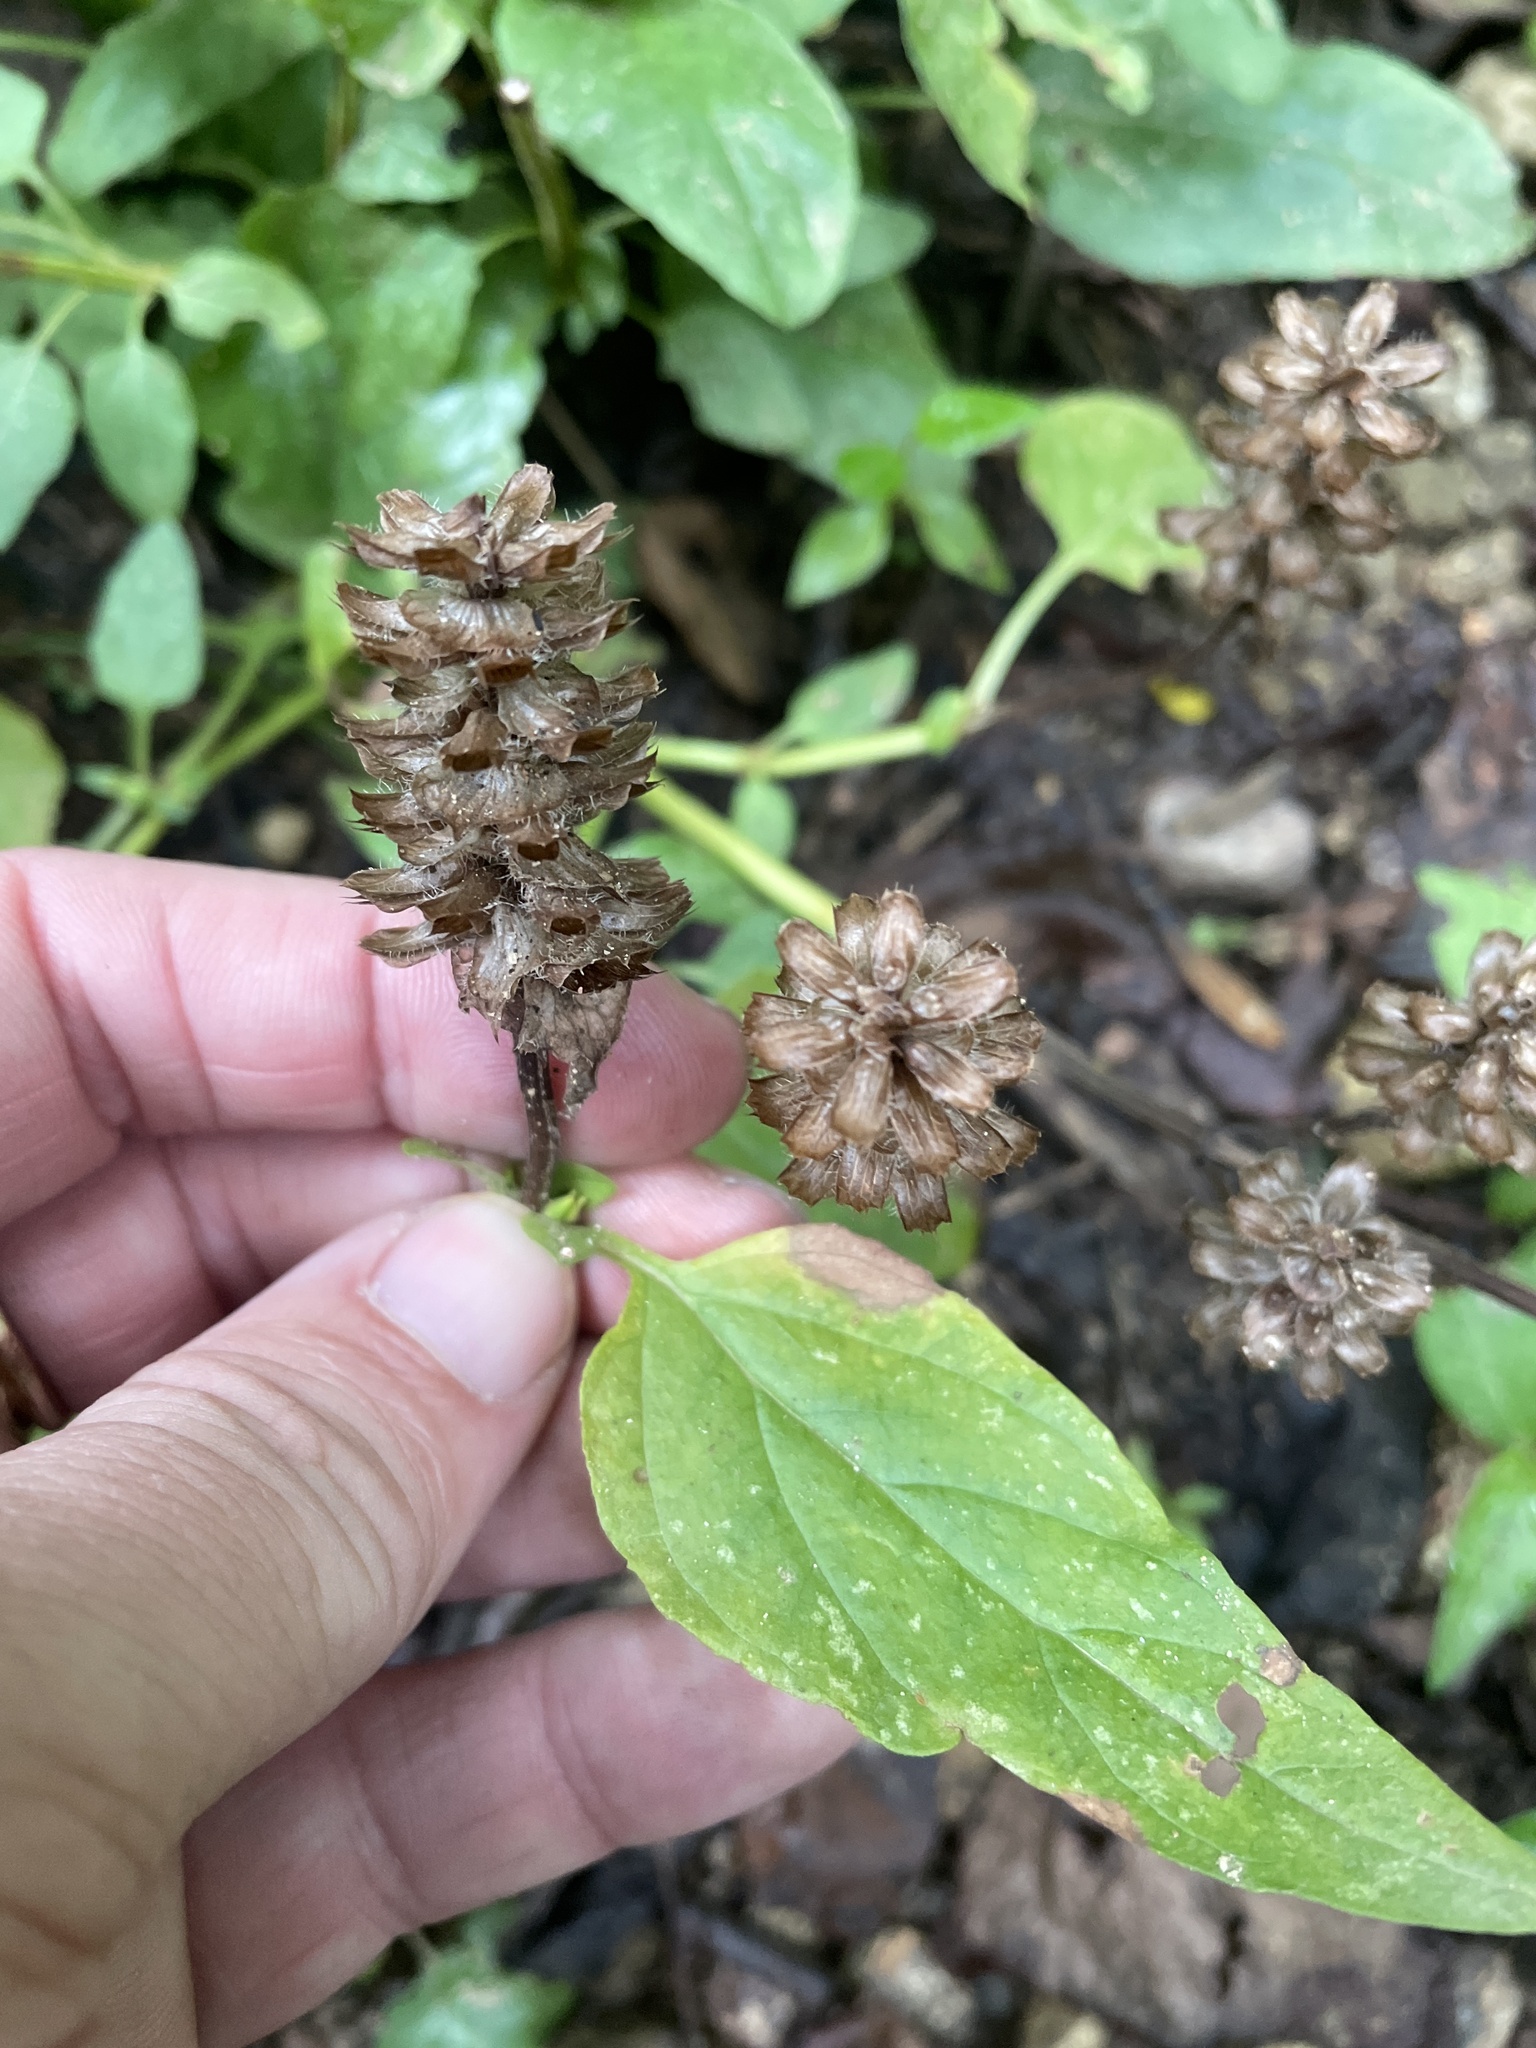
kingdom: Plantae
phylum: Tracheophyta
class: Magnoliopsida
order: Lamiales
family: Lamiaceae
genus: Prunella
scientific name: Prunella vulgaris
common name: Heal-all
